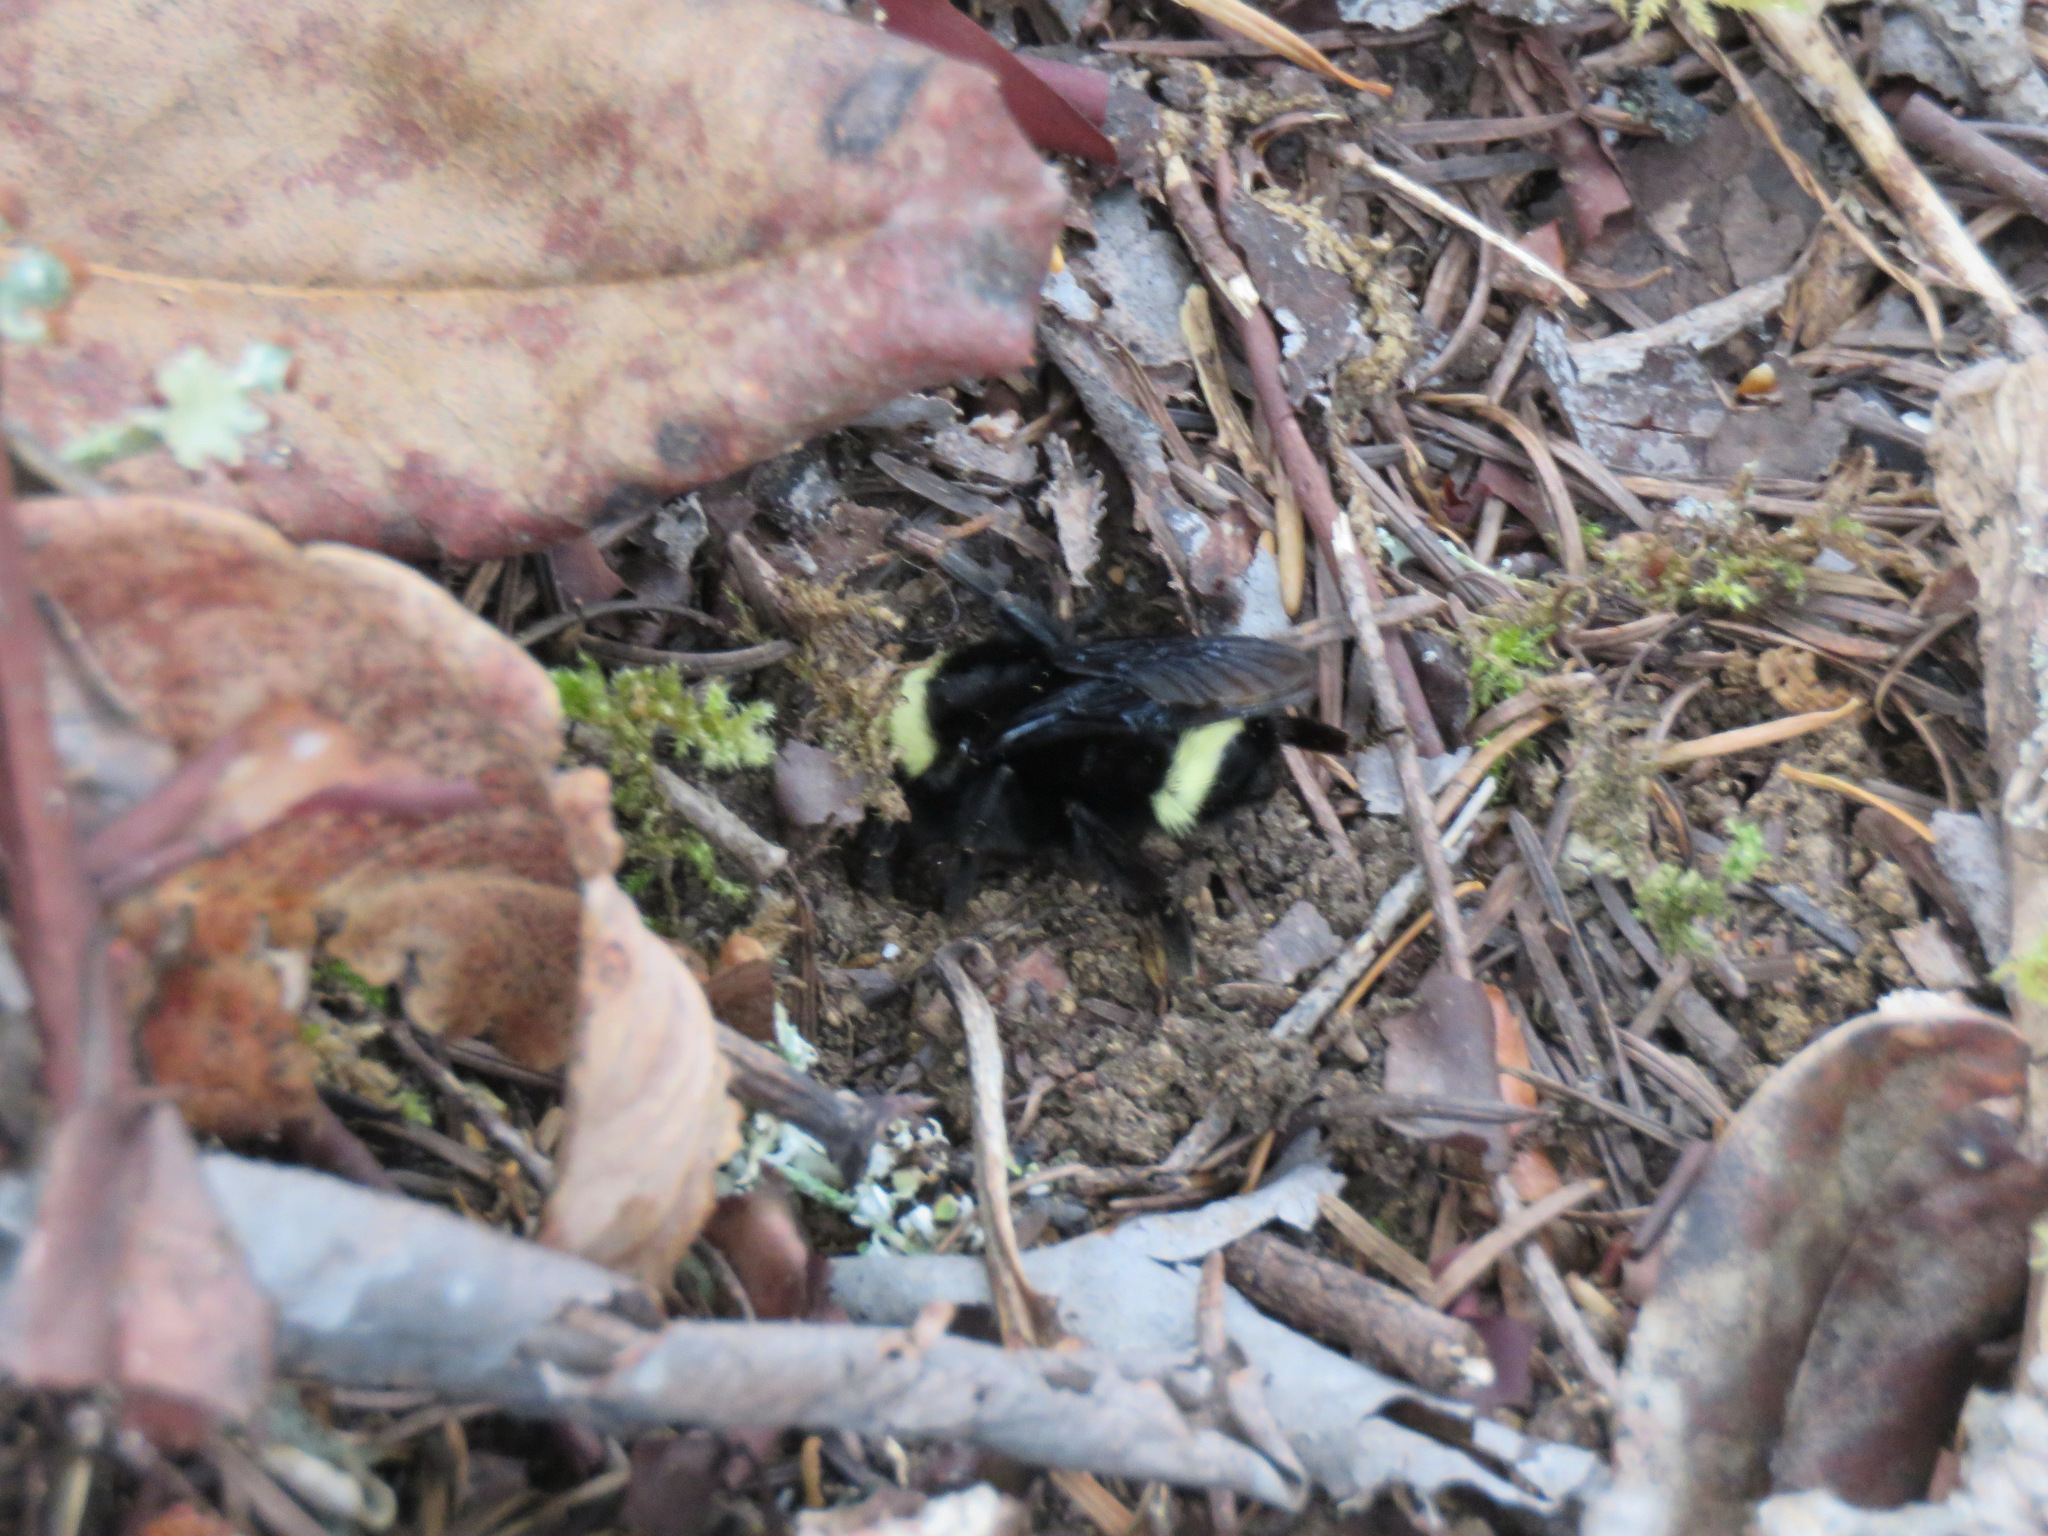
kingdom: Animalia
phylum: Arthropoda
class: Insecta
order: Hymenoptera
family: Apidae
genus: Bombus
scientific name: Bombus vosnesenskii
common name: Vosnesensky bumble bee
